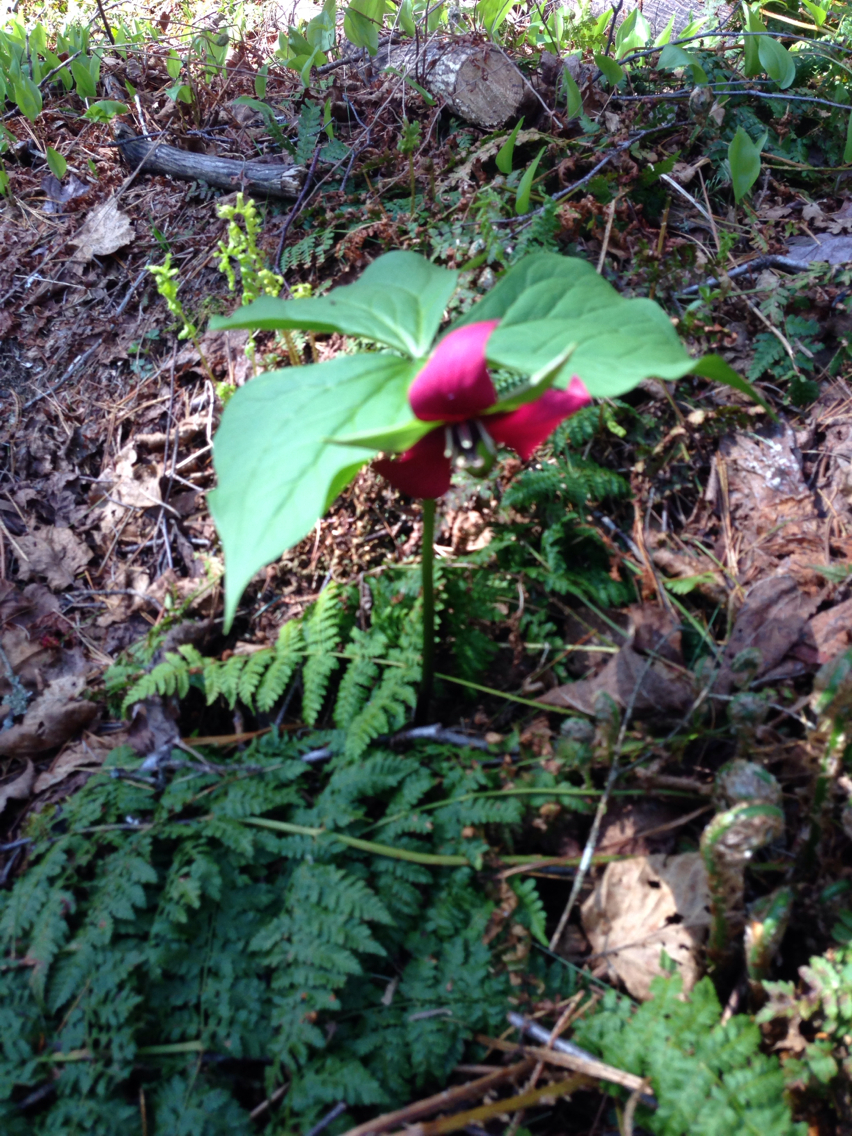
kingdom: Plantae
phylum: Tracheophyta
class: Liliopsida
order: Liliales
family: Melanthiaceae
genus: Trillium
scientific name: Trillium erectum
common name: Purple trillium
